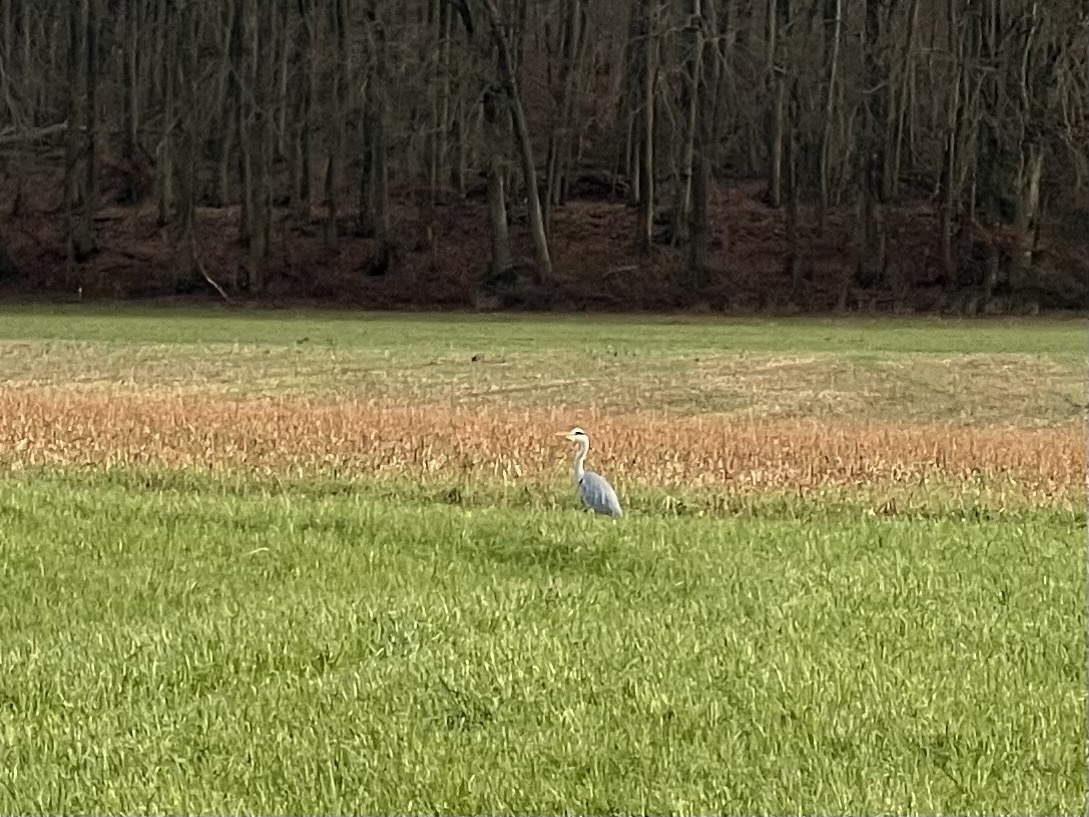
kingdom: Animalia
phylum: Chordata
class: Aves
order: Pelecaniformes
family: Ardeidae
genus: Ardea
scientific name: Ardea cinerea
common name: Grey heron
